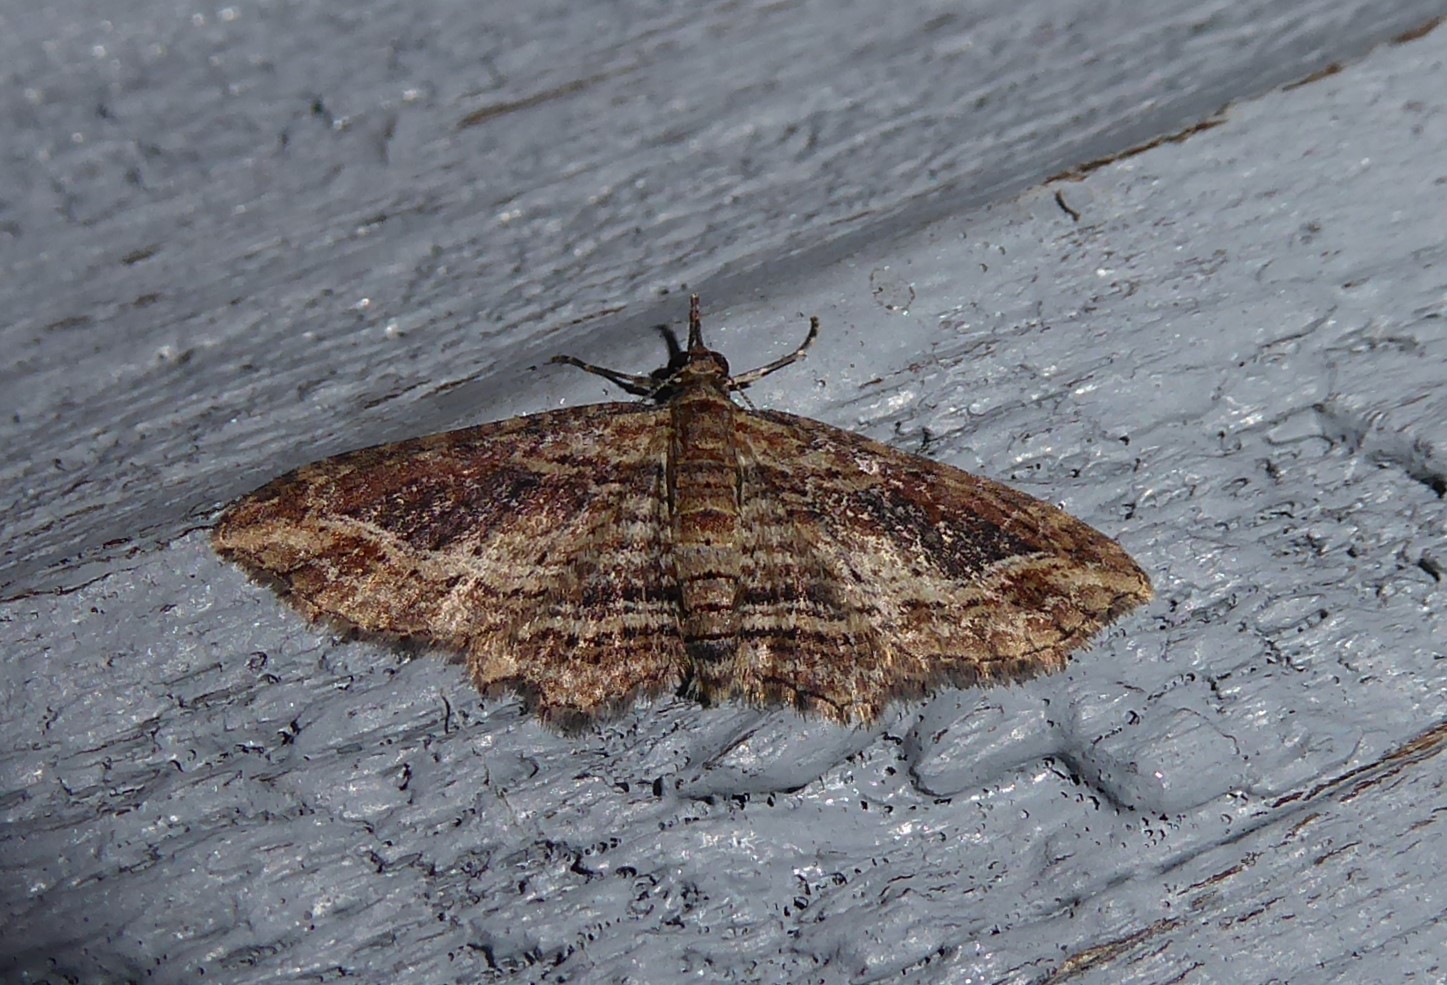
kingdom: Animalia
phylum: Arthropoda
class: Insecta
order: Lepidoptera
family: Geometridae
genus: Chloroclystis
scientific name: Chloroclystis filata
